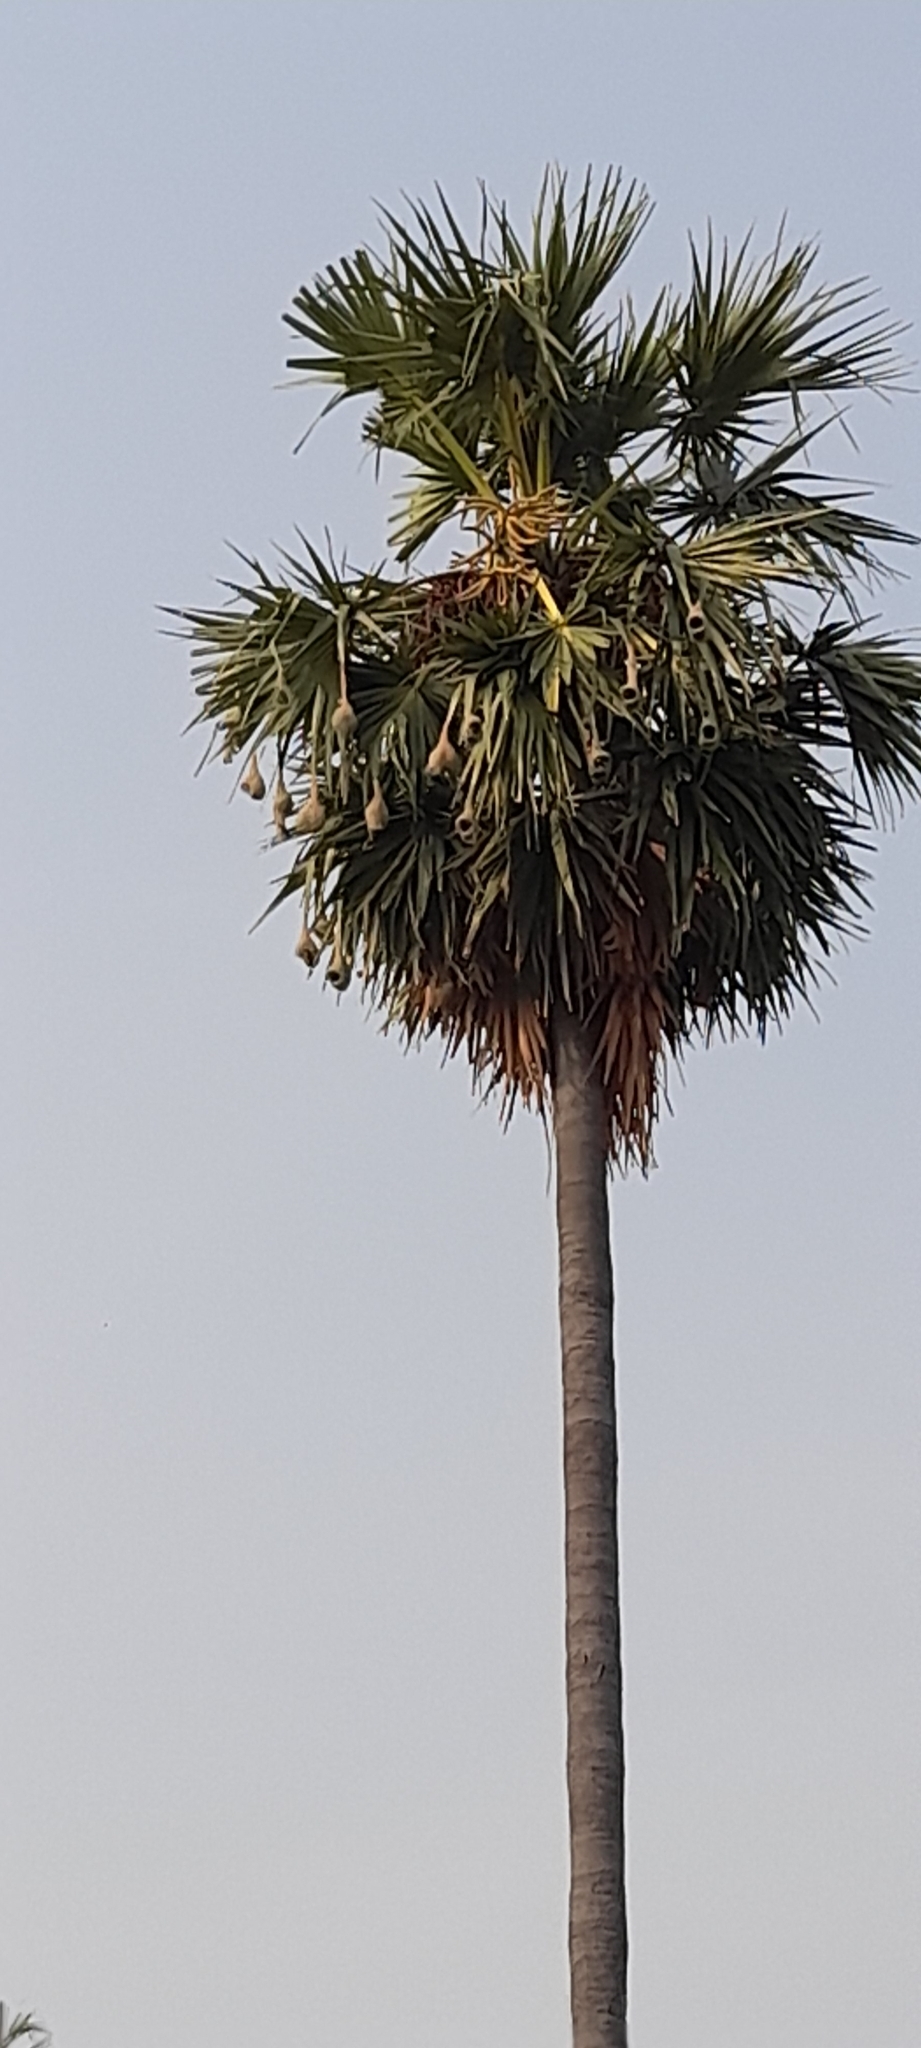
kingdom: Plantae
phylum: Tracheophyta
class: Liliopsida
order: Arecales
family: Arecaceae
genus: Borassus
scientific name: Borassus flabellifer
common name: Palmyra palm
